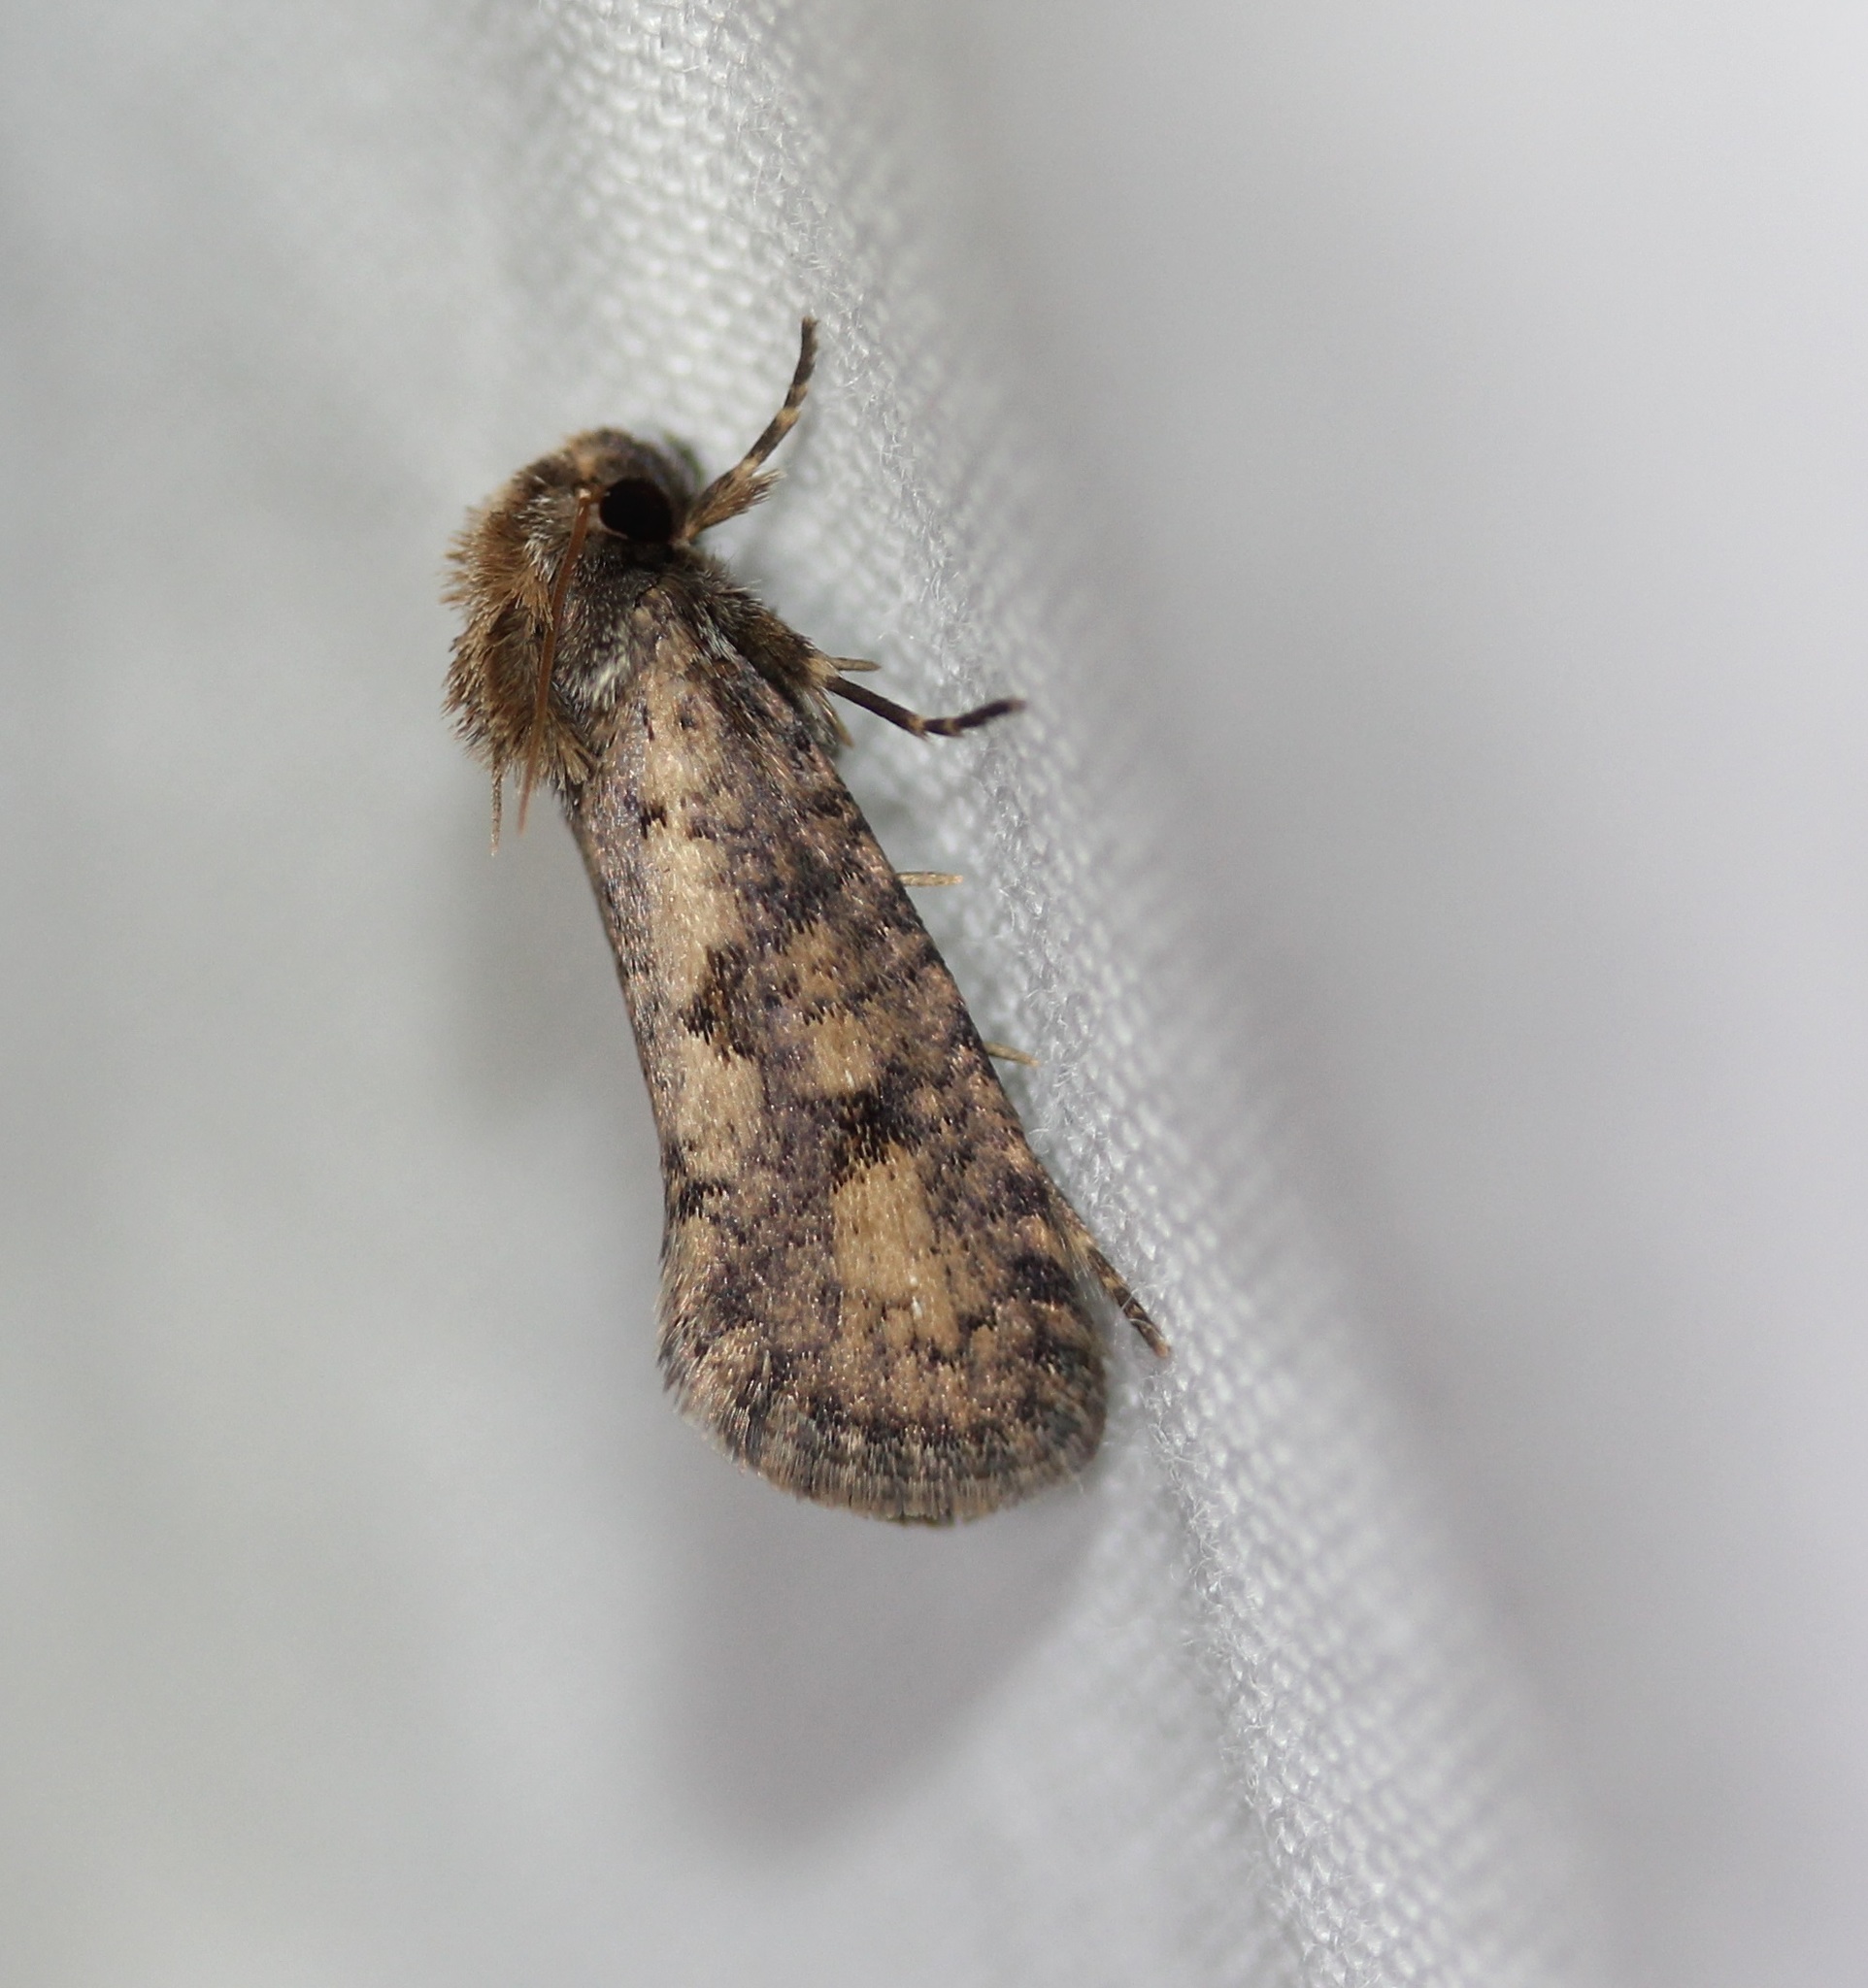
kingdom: Animalia
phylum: Arthropoda
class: Insecta
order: Lepidoptera
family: Tineidae
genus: Acrolophus
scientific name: Acrolophus popeanella
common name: Clemens' grass tubeworm moth
